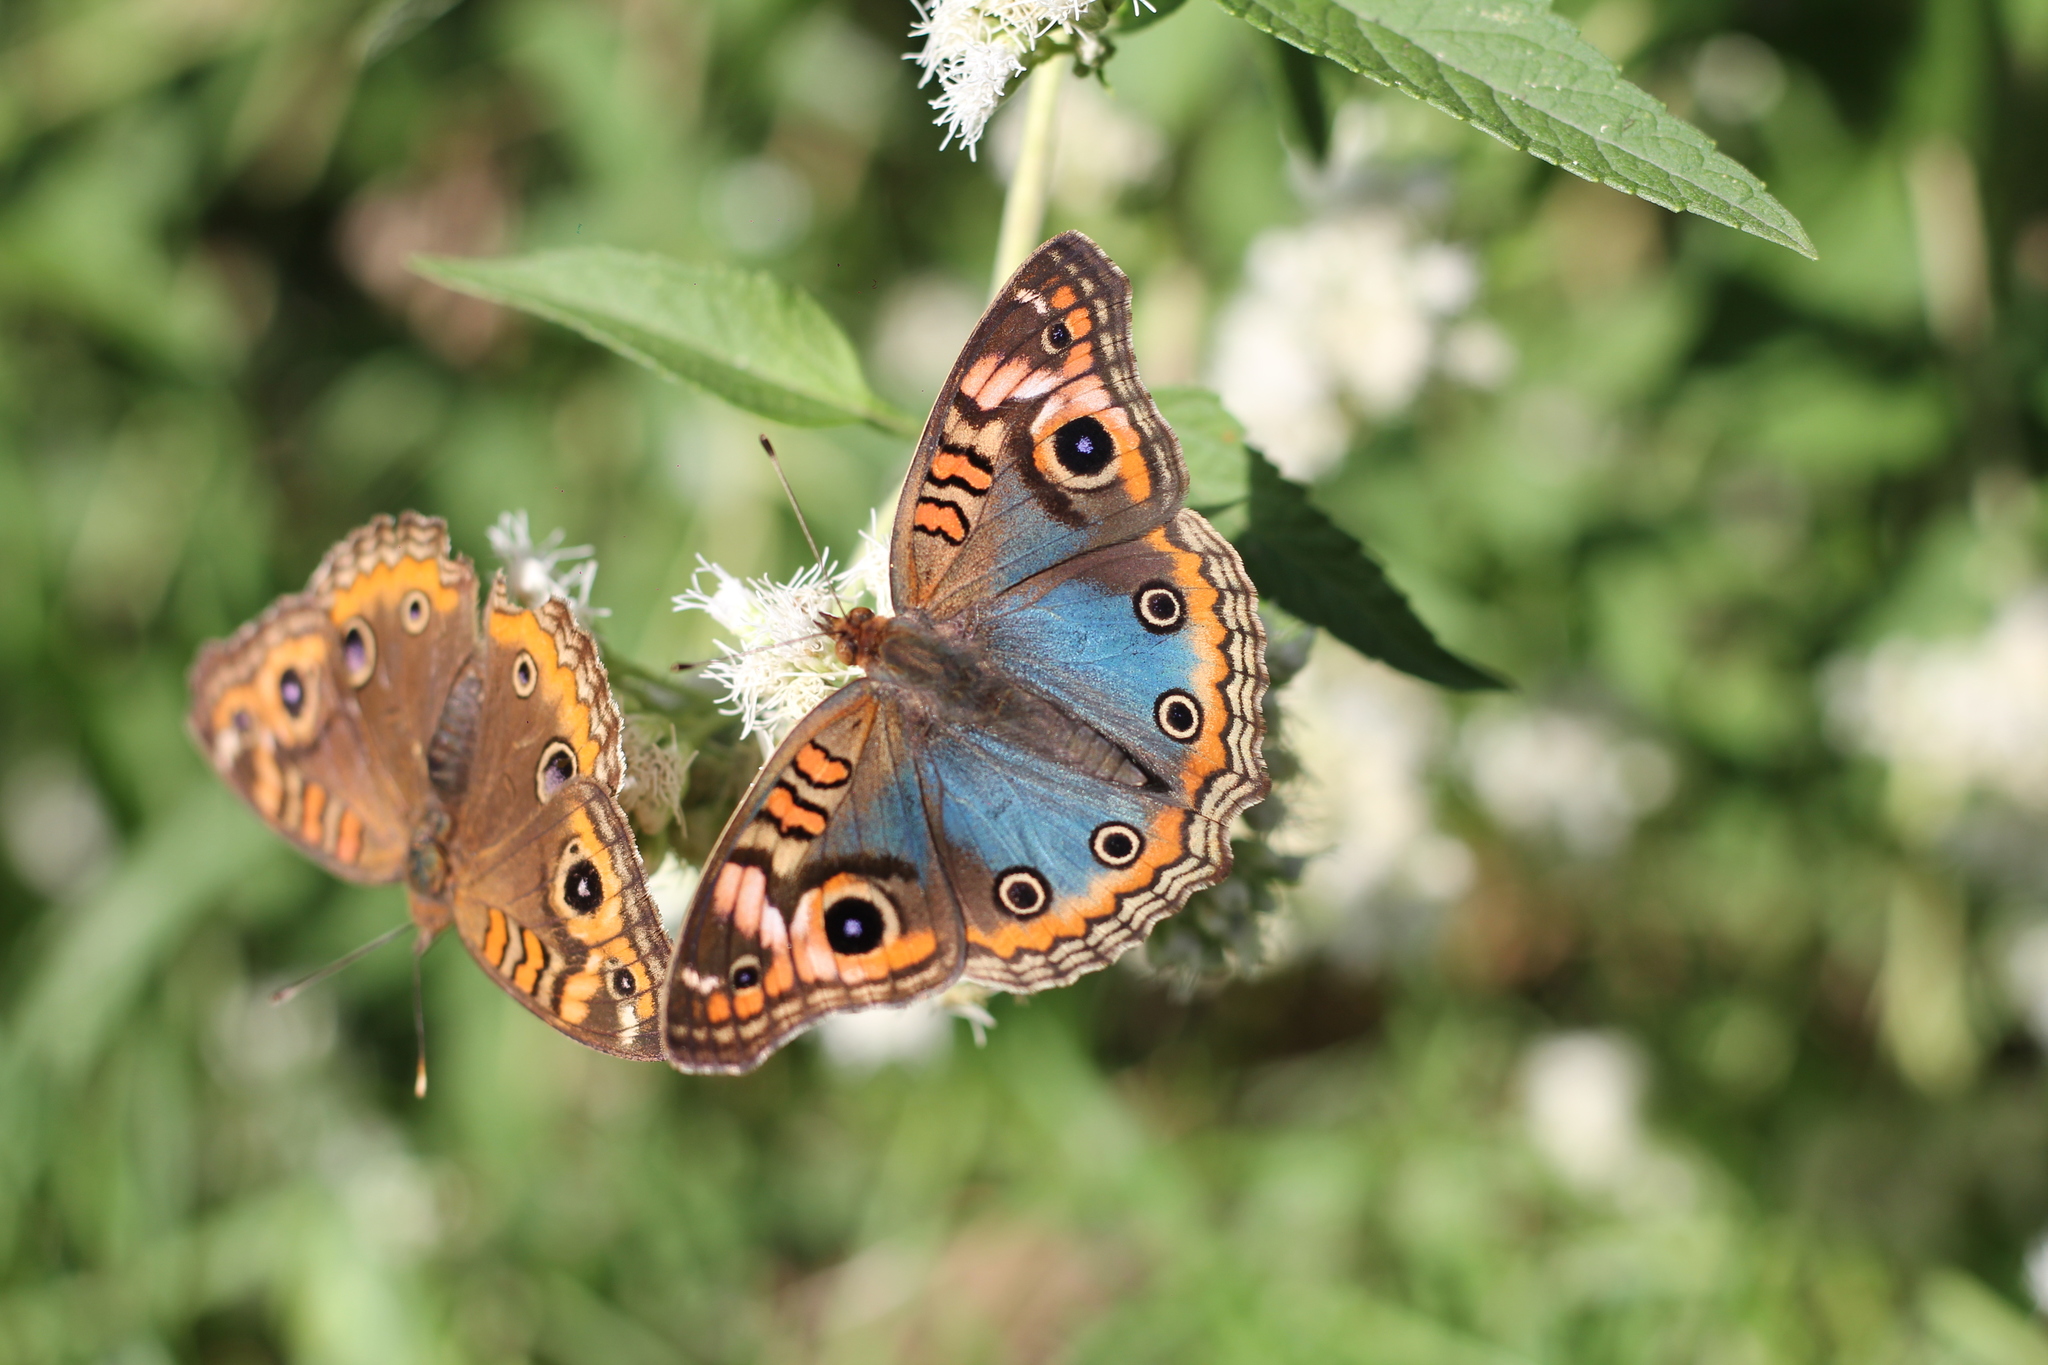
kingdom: Animalia
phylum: Arthropoda
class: Insecta
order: Lepidoptera
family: Nymphalidae
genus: Junonia
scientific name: Junonia lavinia
